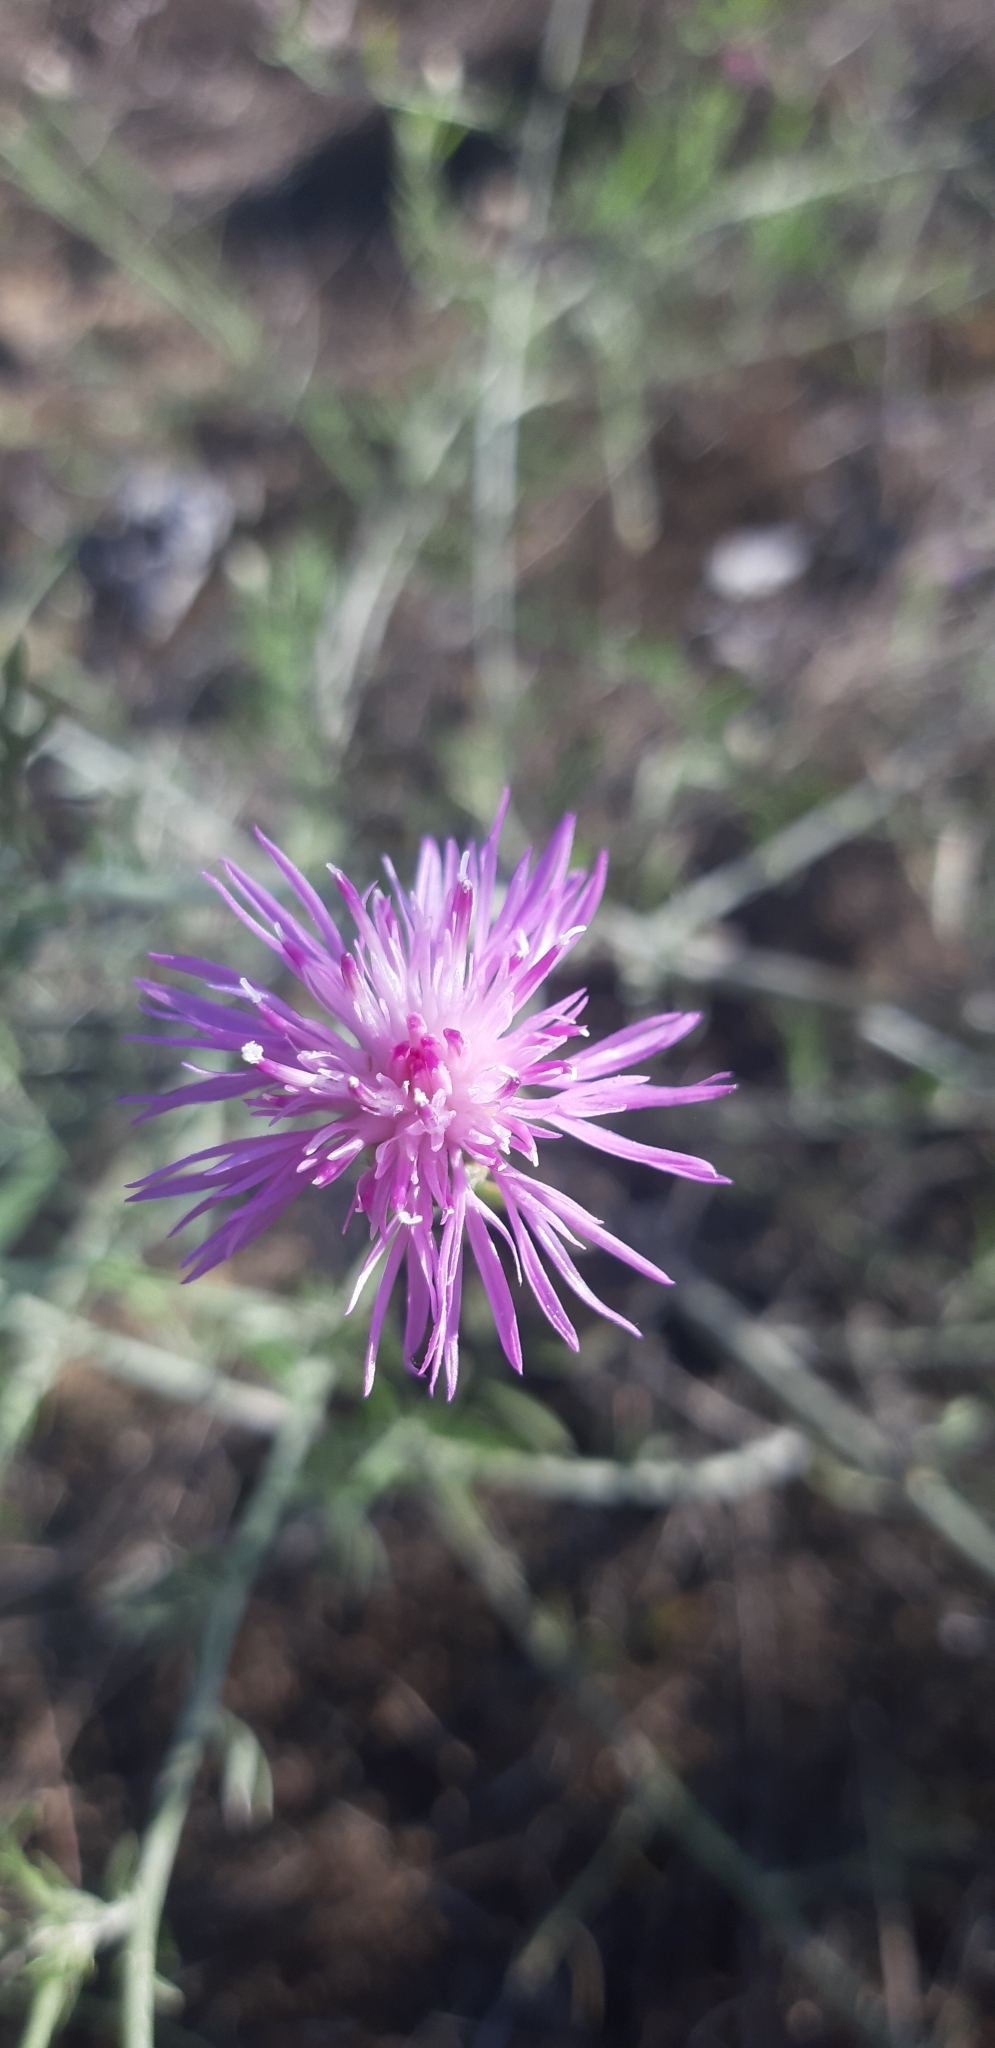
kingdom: Plantae
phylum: Tracheophyta
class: Magnoliopsida
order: Asterales
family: Asteraceae
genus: Centaurea
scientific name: Centaurea arenaria
